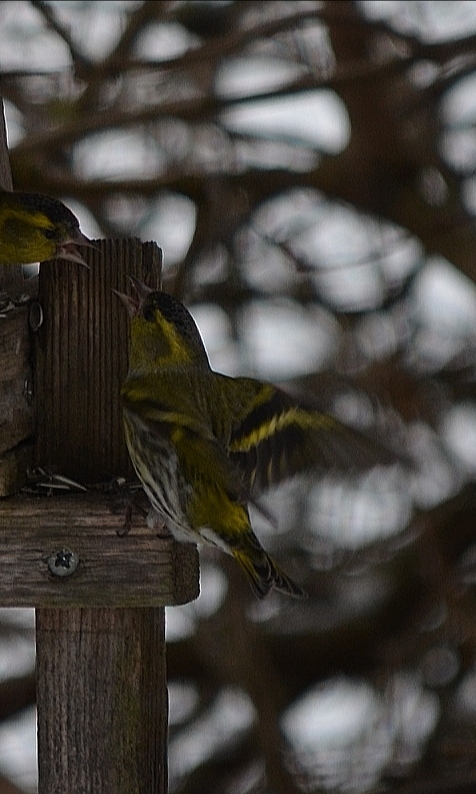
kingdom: Animalia
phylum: Chordata
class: Aves
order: Passeriformes
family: Fringillidae
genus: Spinus
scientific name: Spinus spinus
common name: Eurasian siskin
